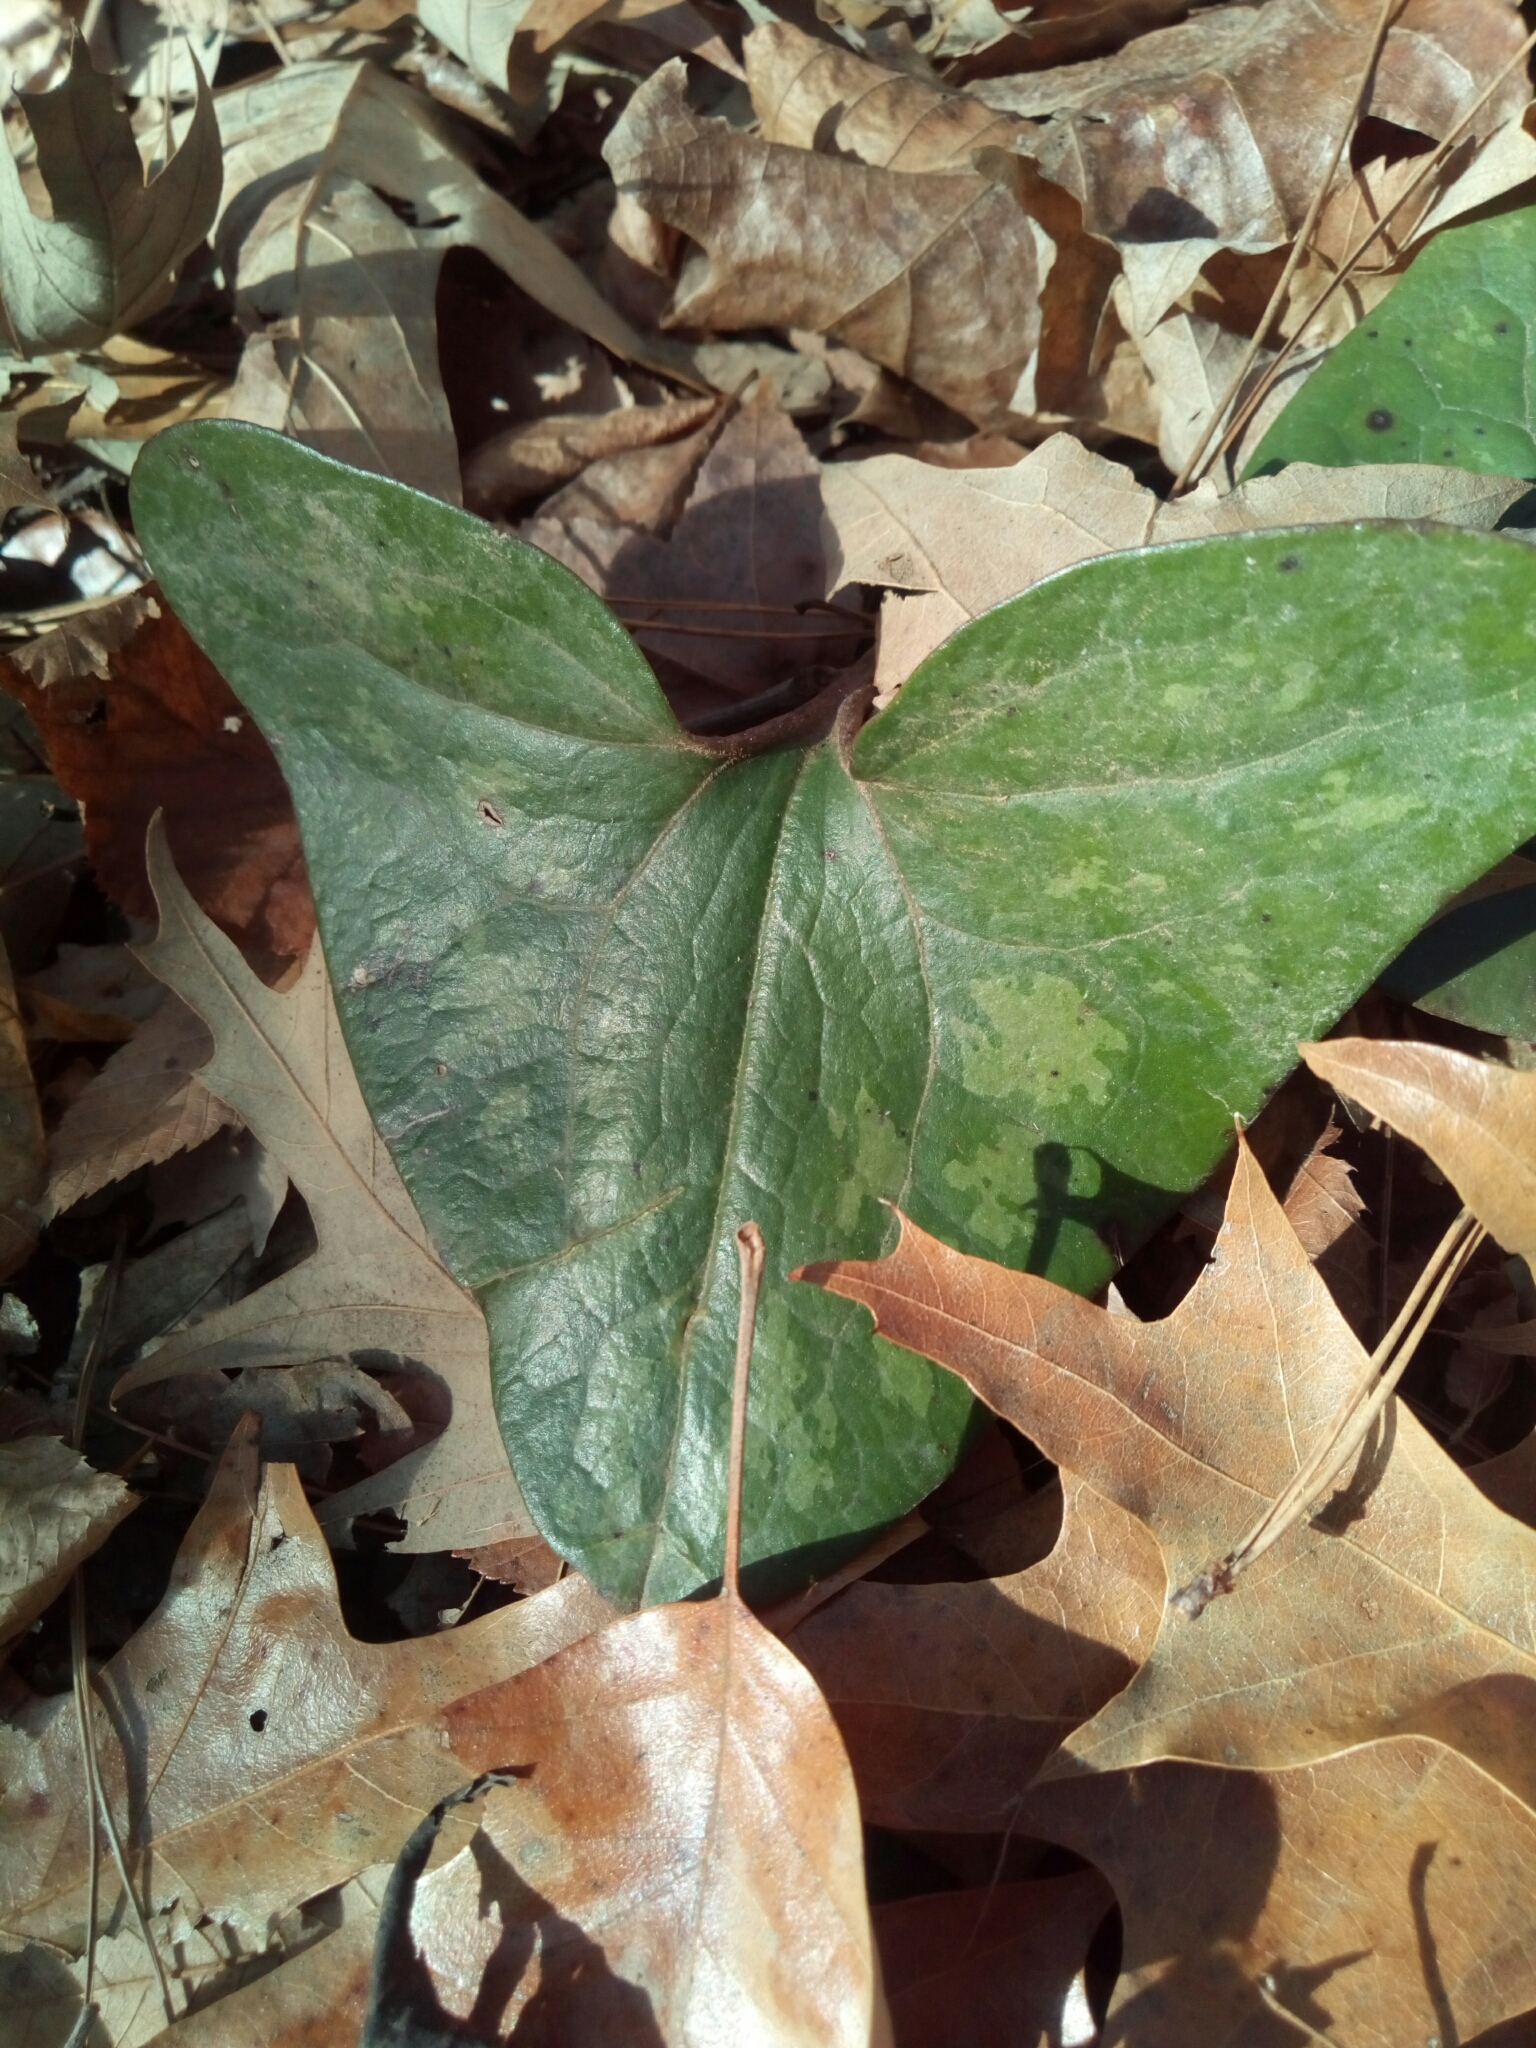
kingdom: Plantae
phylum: Tracheophyta
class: Magnoliopsida
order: Piperales
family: Aristolochiaceae
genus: Hexastylis
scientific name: Hexastylis arifolia
